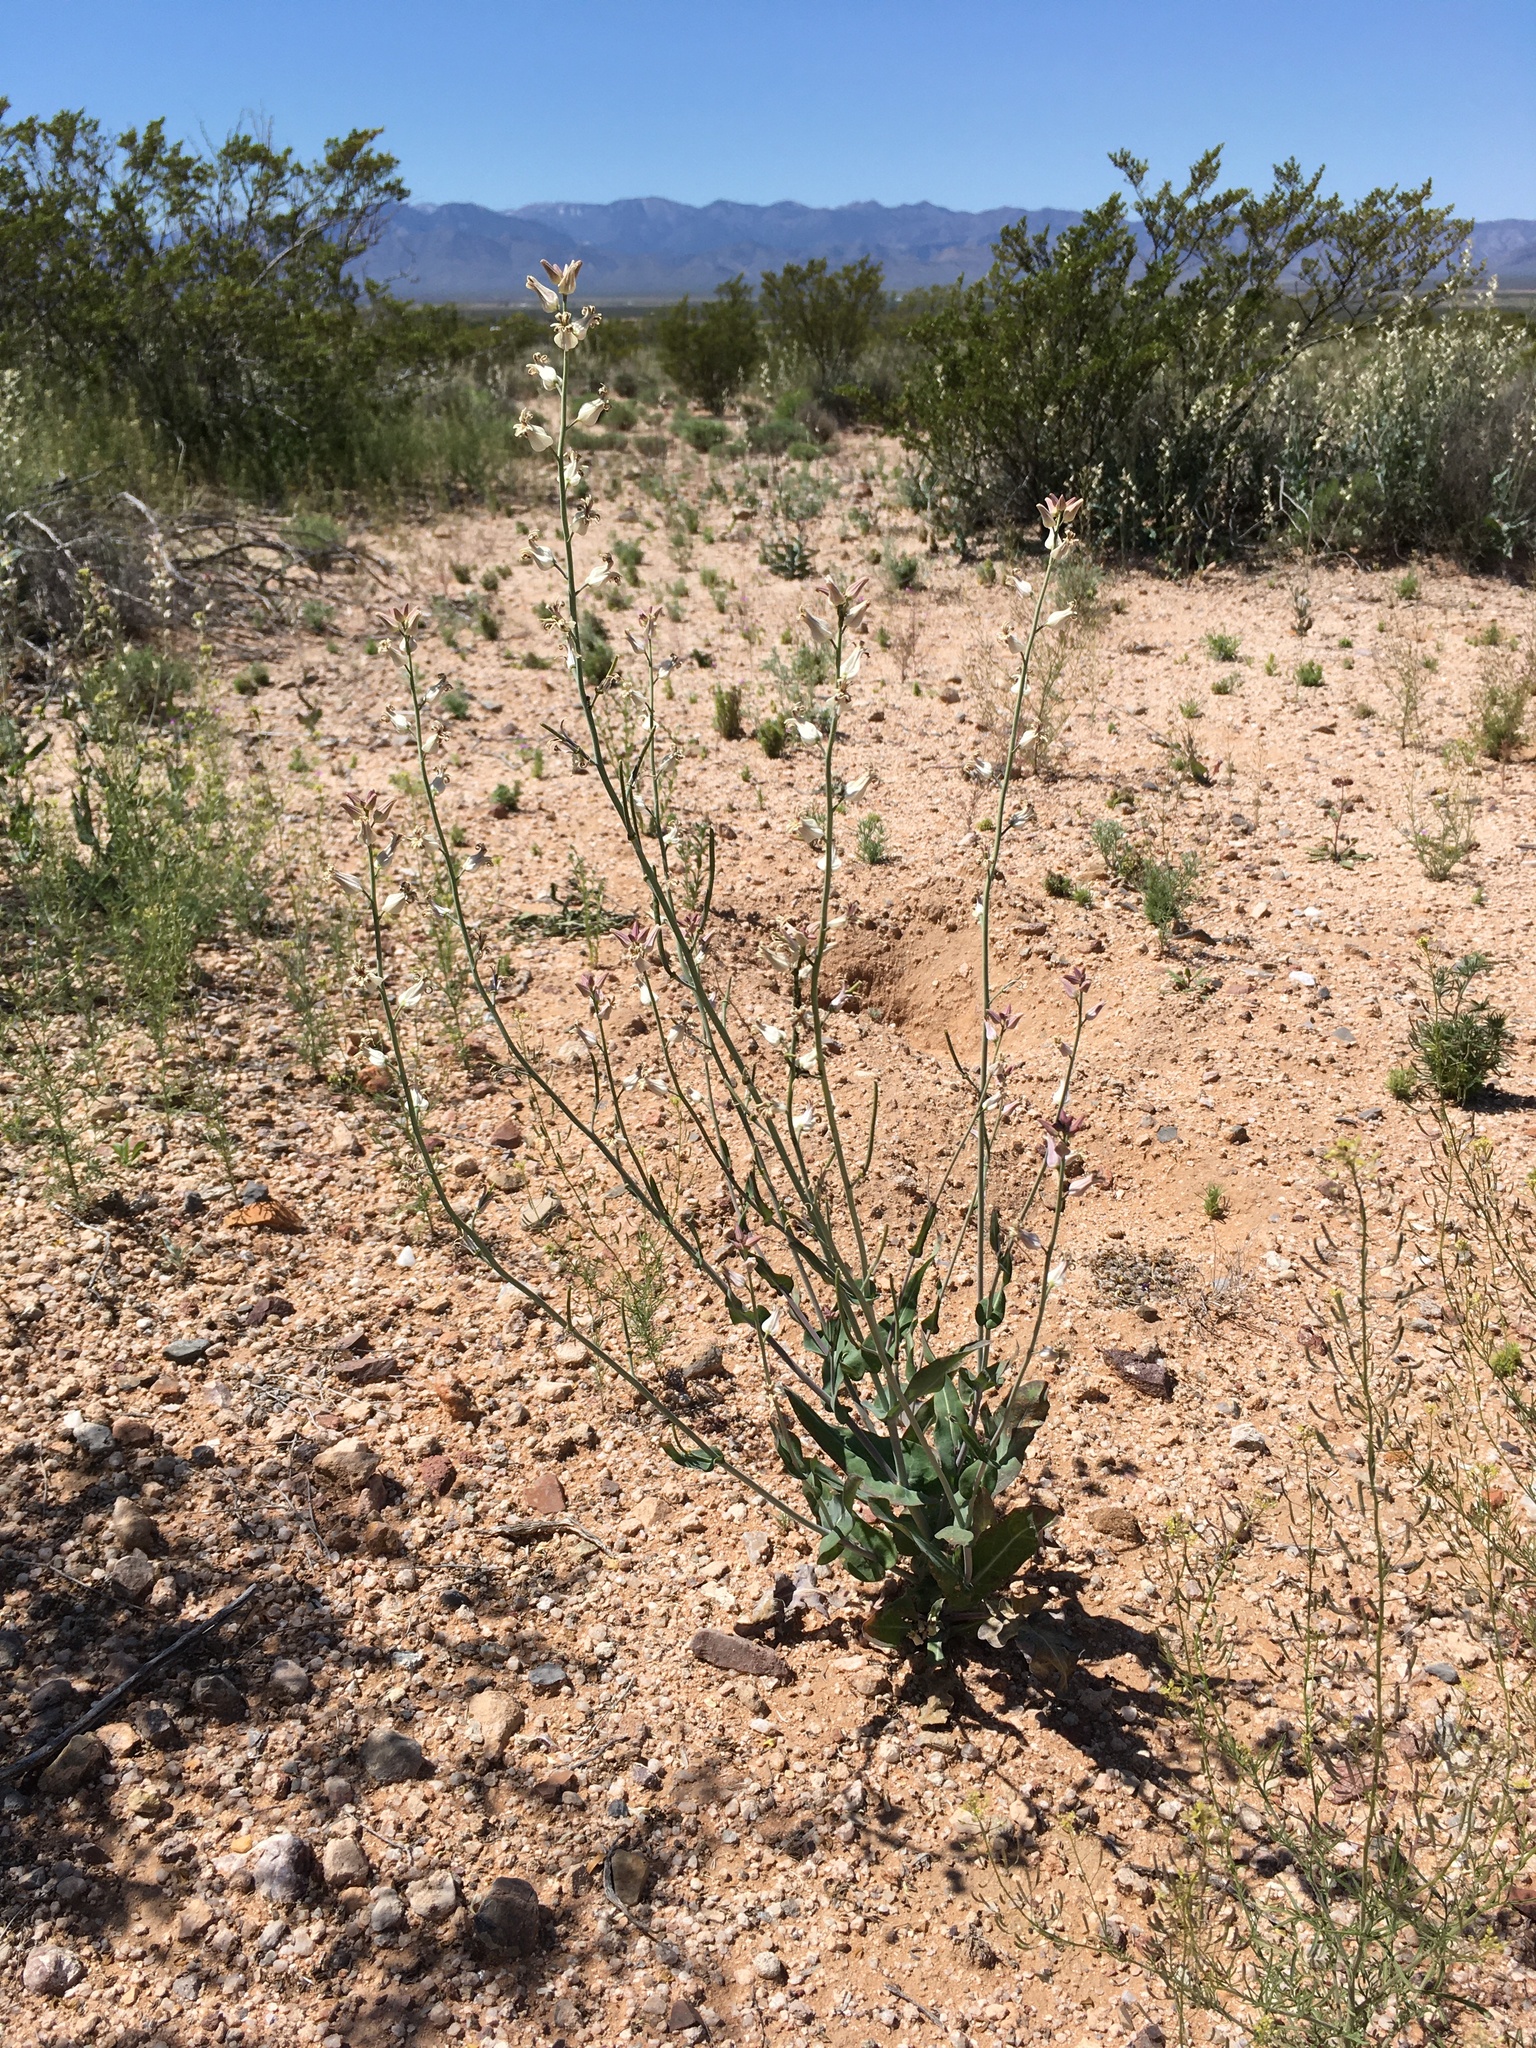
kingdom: Plantae
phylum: Tracheophyta
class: Magnoliopsida
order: Brassicales
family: Brassicaceae
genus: Streptanthus
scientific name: Streptanthus carinatus
